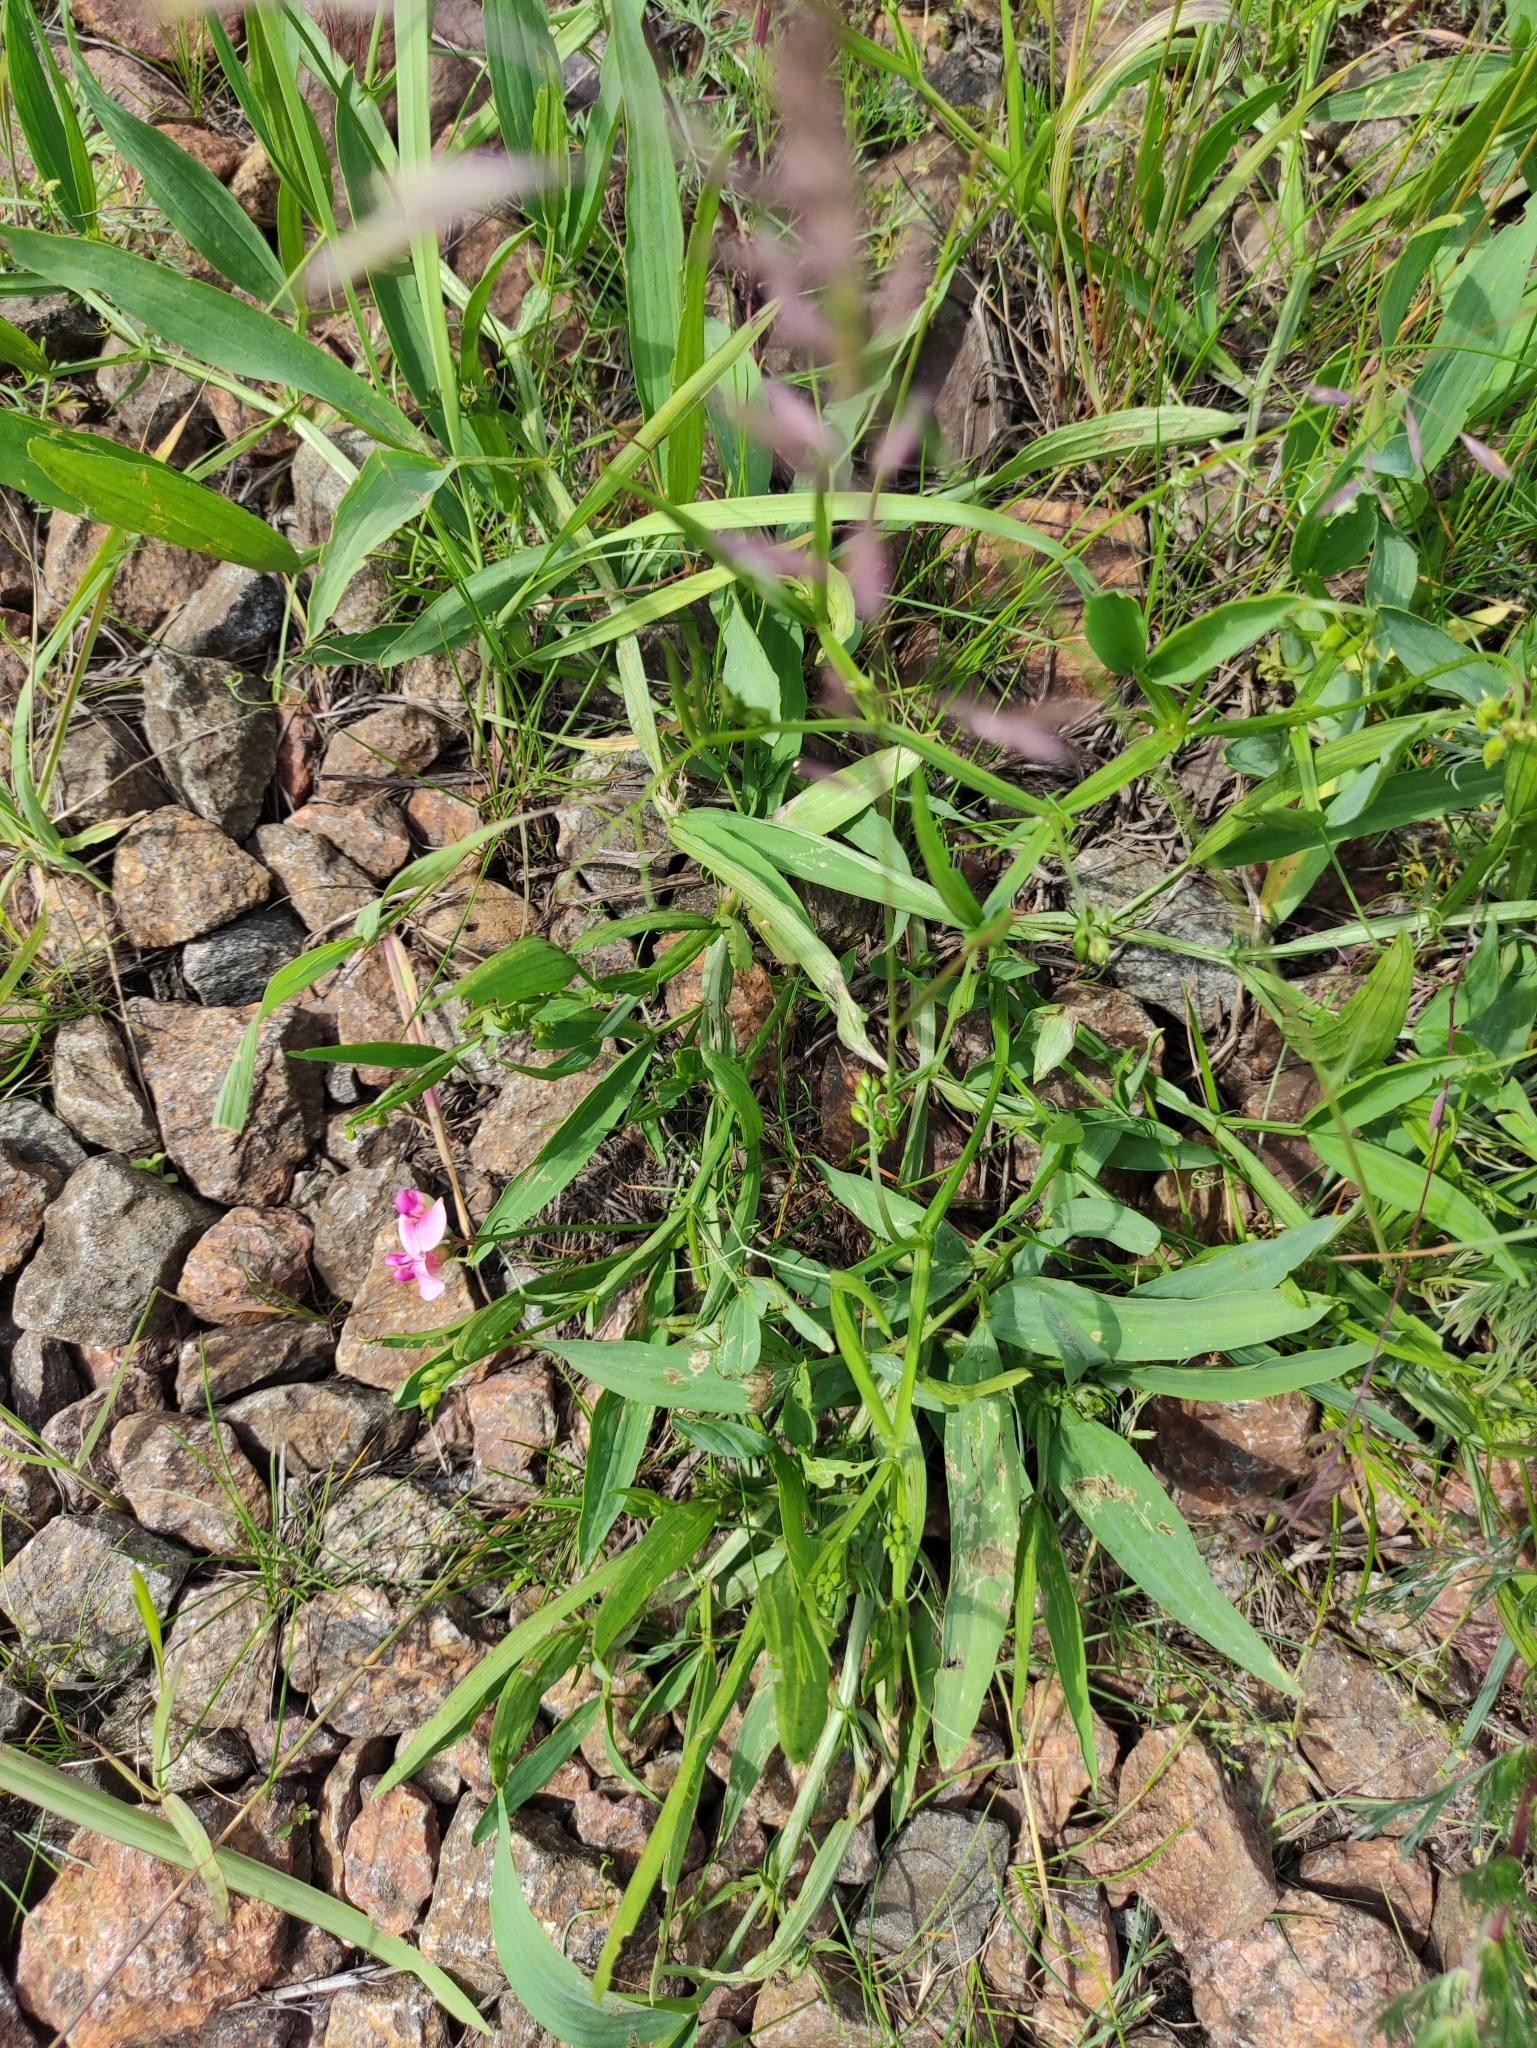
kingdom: Plantae
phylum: Tracheophyta
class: Magnoliopsida
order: Fabales
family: Fabaceae
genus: Lathyrus
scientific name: Lathyrus sylvestris
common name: Flat pea
